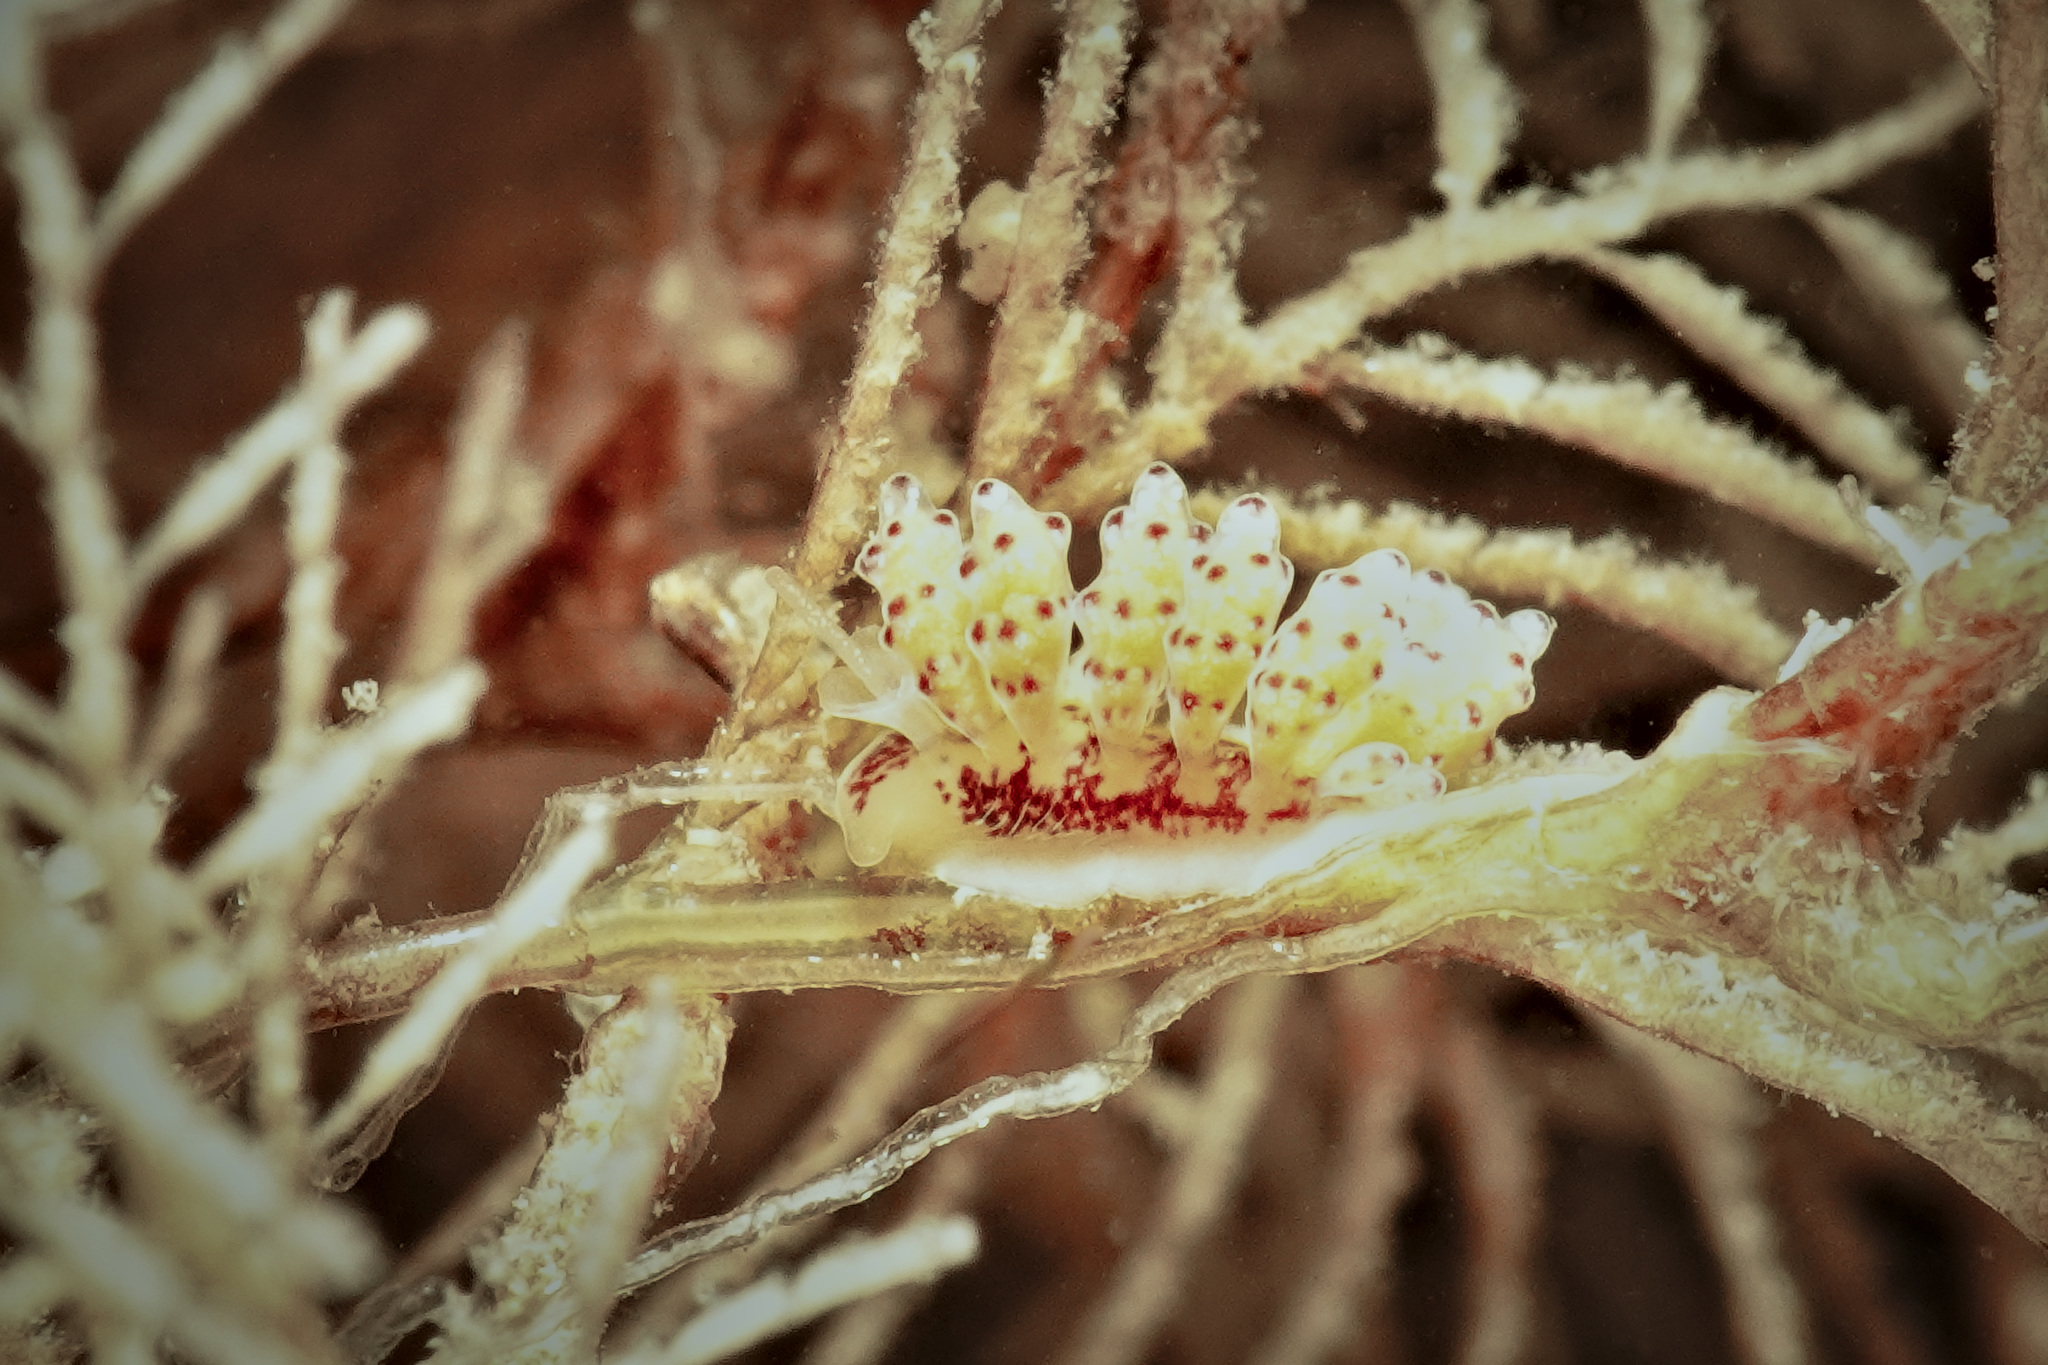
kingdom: Animalia
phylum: Mollusca
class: Gastropoda
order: Nudibranchia
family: Dotidae
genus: Doto
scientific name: Doto hydrallmaniae
